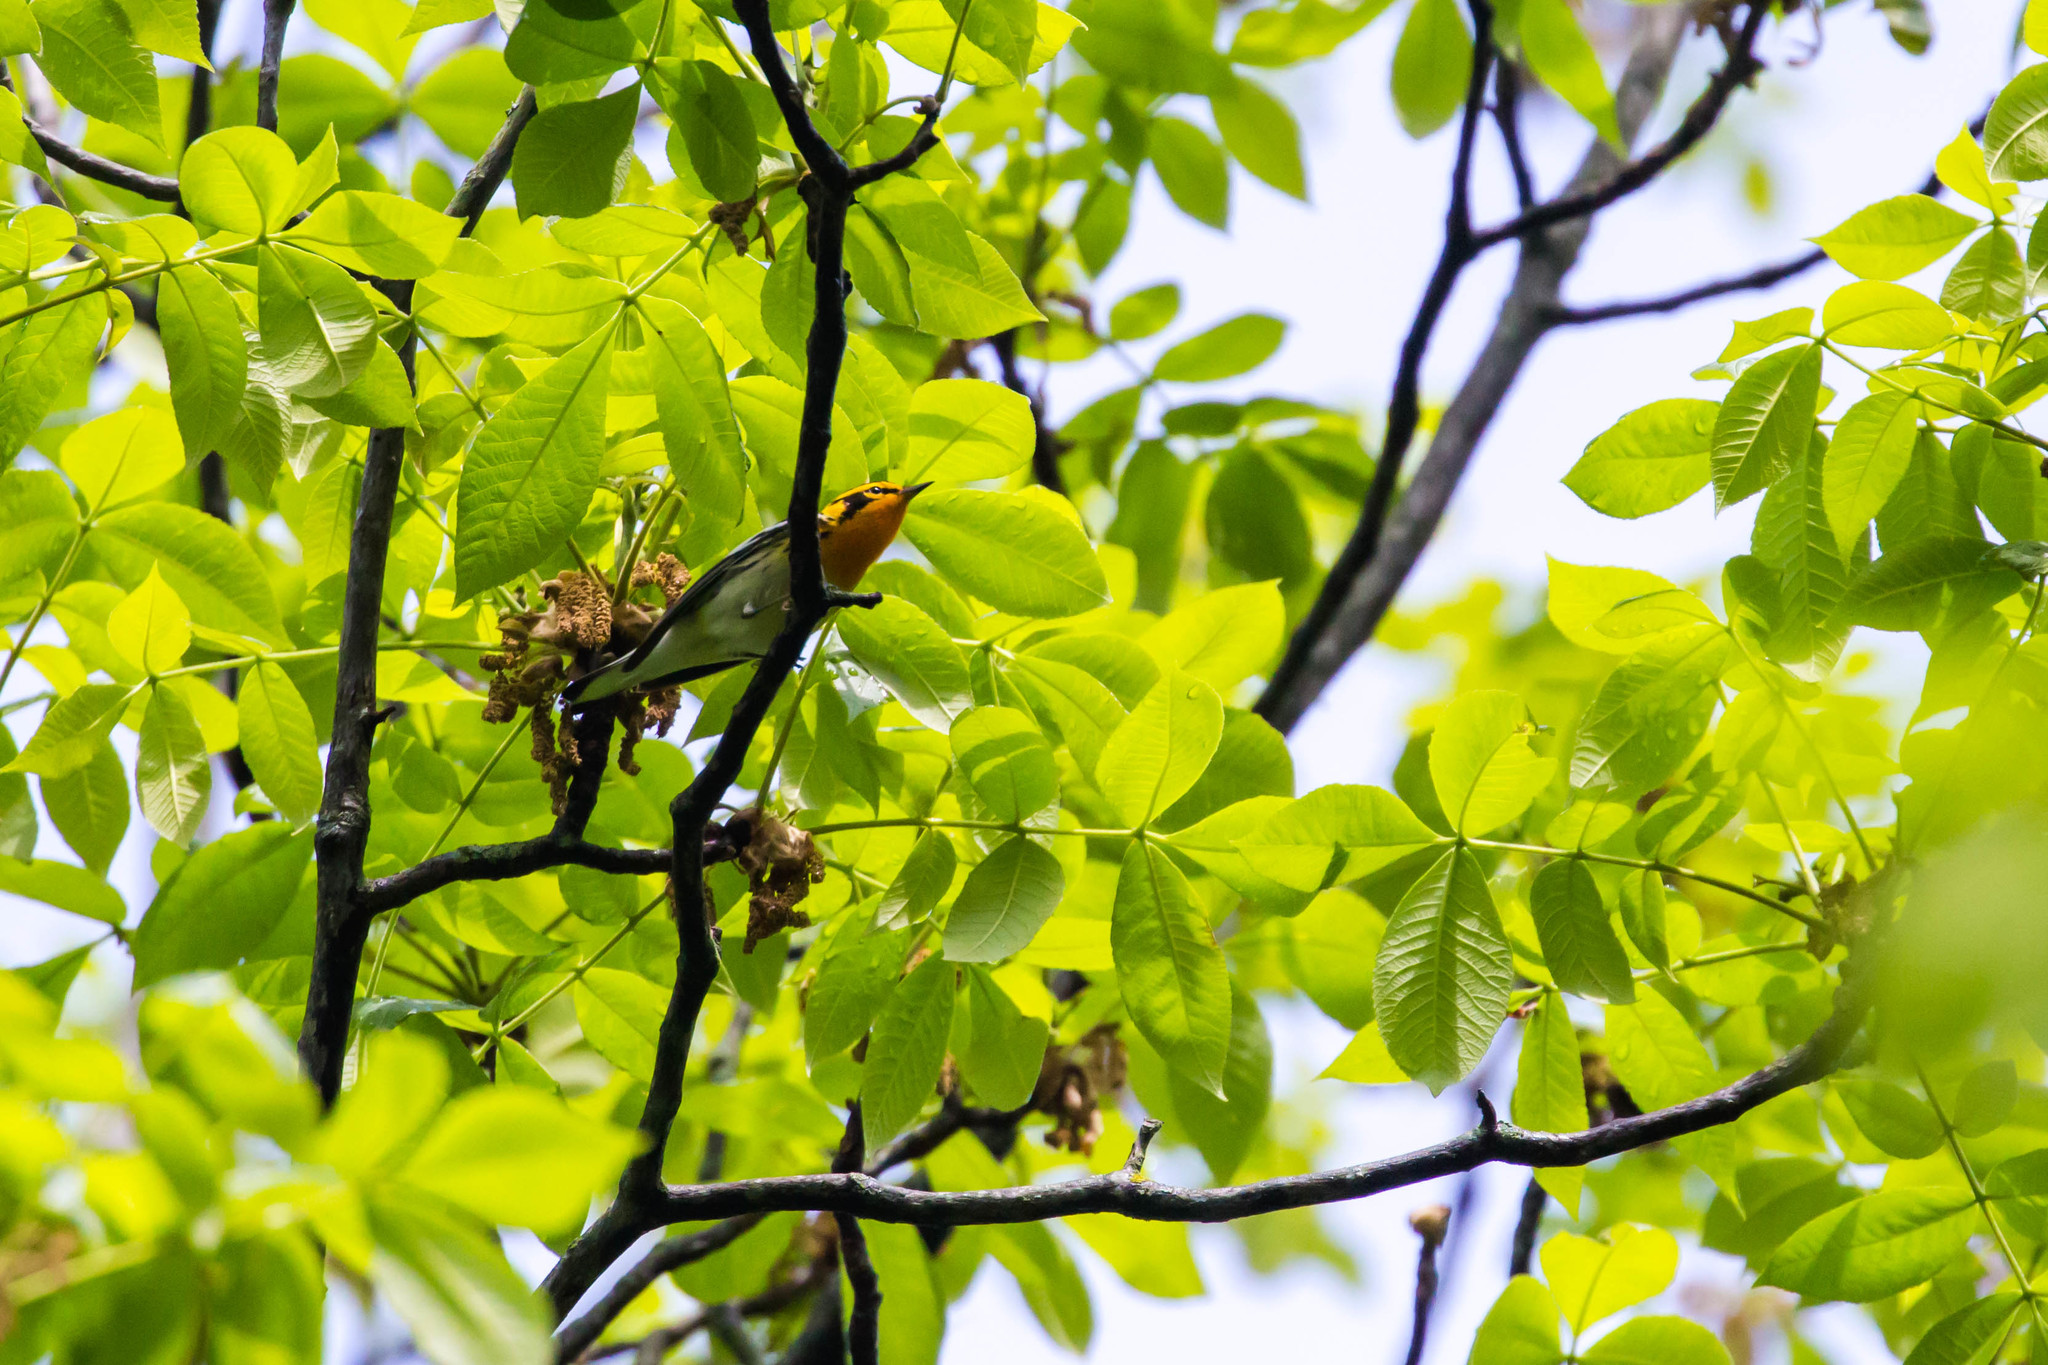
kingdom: Animalia
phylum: Chordata
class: Aves
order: Passeriformes
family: Parulidae
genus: Setophaga
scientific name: Setophaga fusca
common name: Blackburnian warbler
